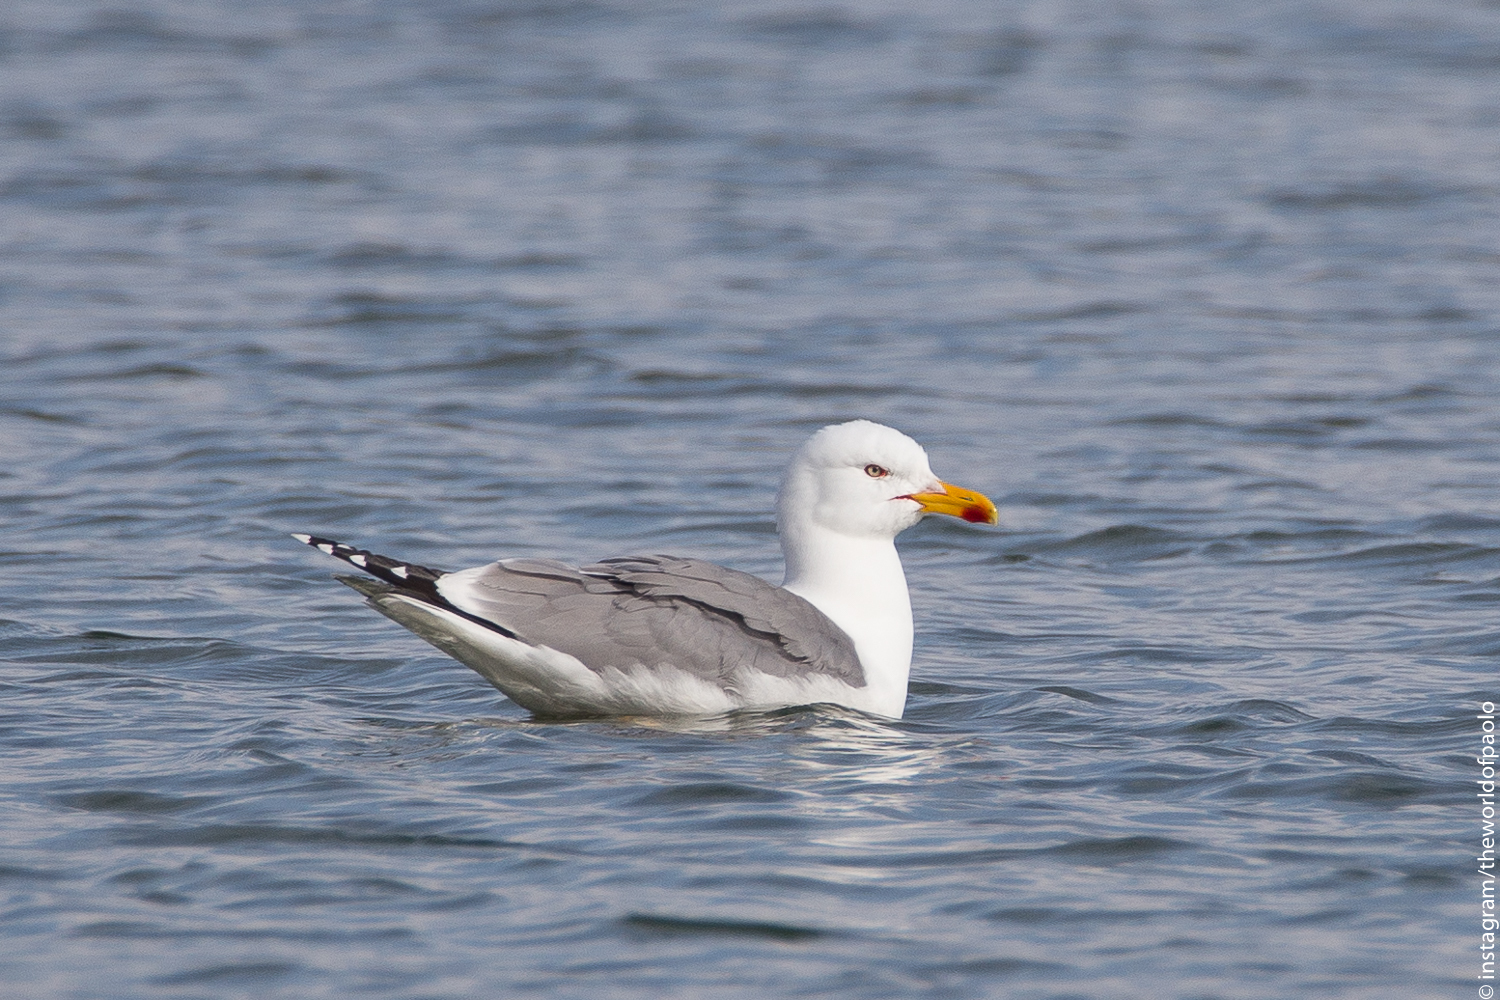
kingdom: Animalia
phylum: Chordata
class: Aves
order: Charadriiformes
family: Laridae
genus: Larus
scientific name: Larus michahellis
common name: Yellow-legged gull
